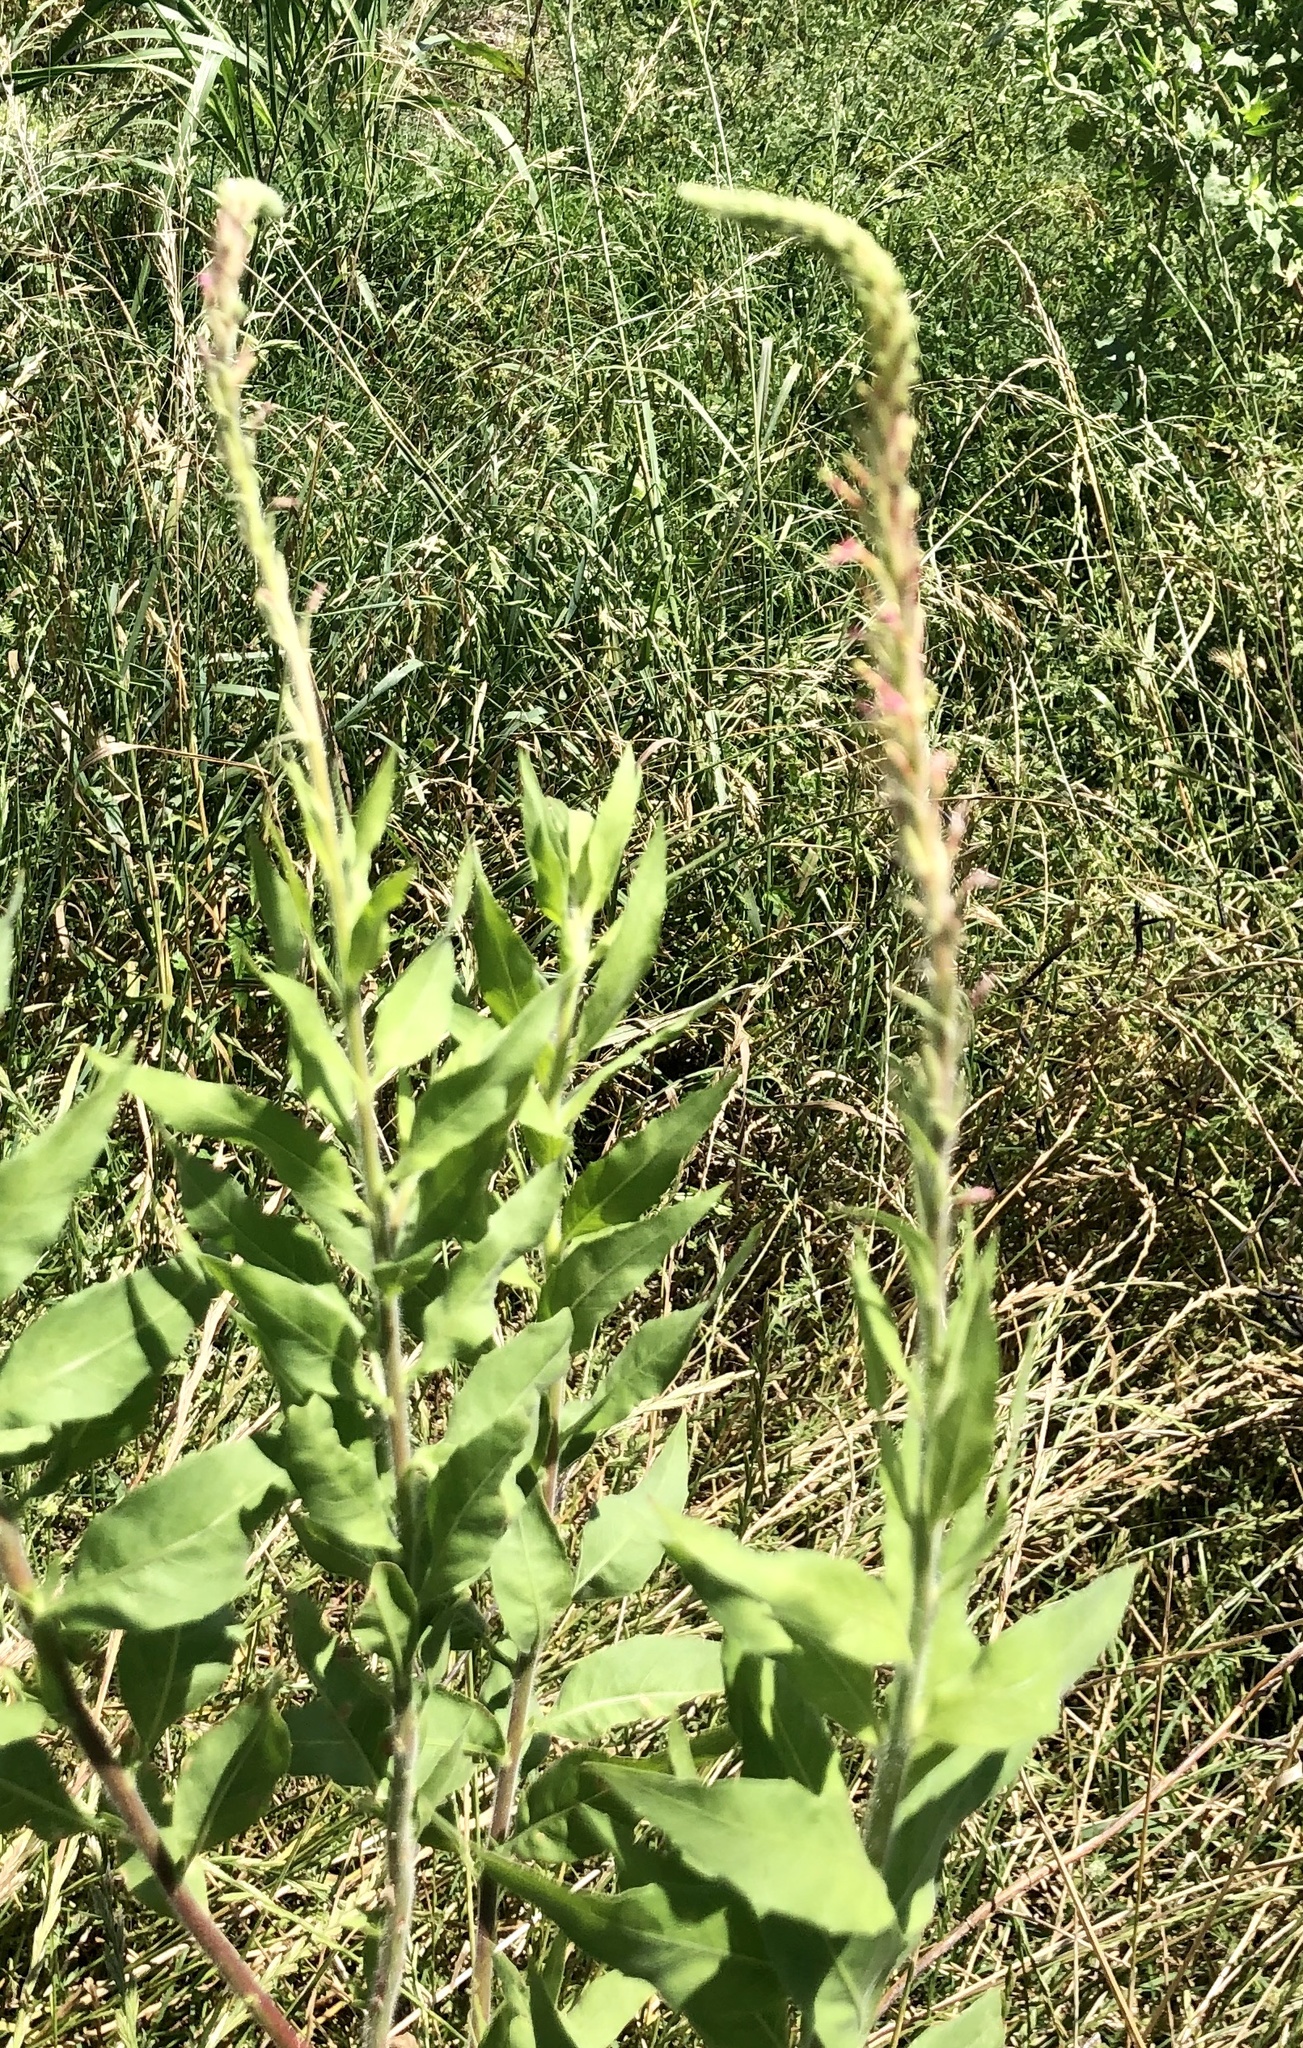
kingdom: Plantae
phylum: Tracheophyta
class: Magnoliopsida
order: Myrtales
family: Onagraceae
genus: Oenothera
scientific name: Oenothera curtiflora
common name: Velvetweed
